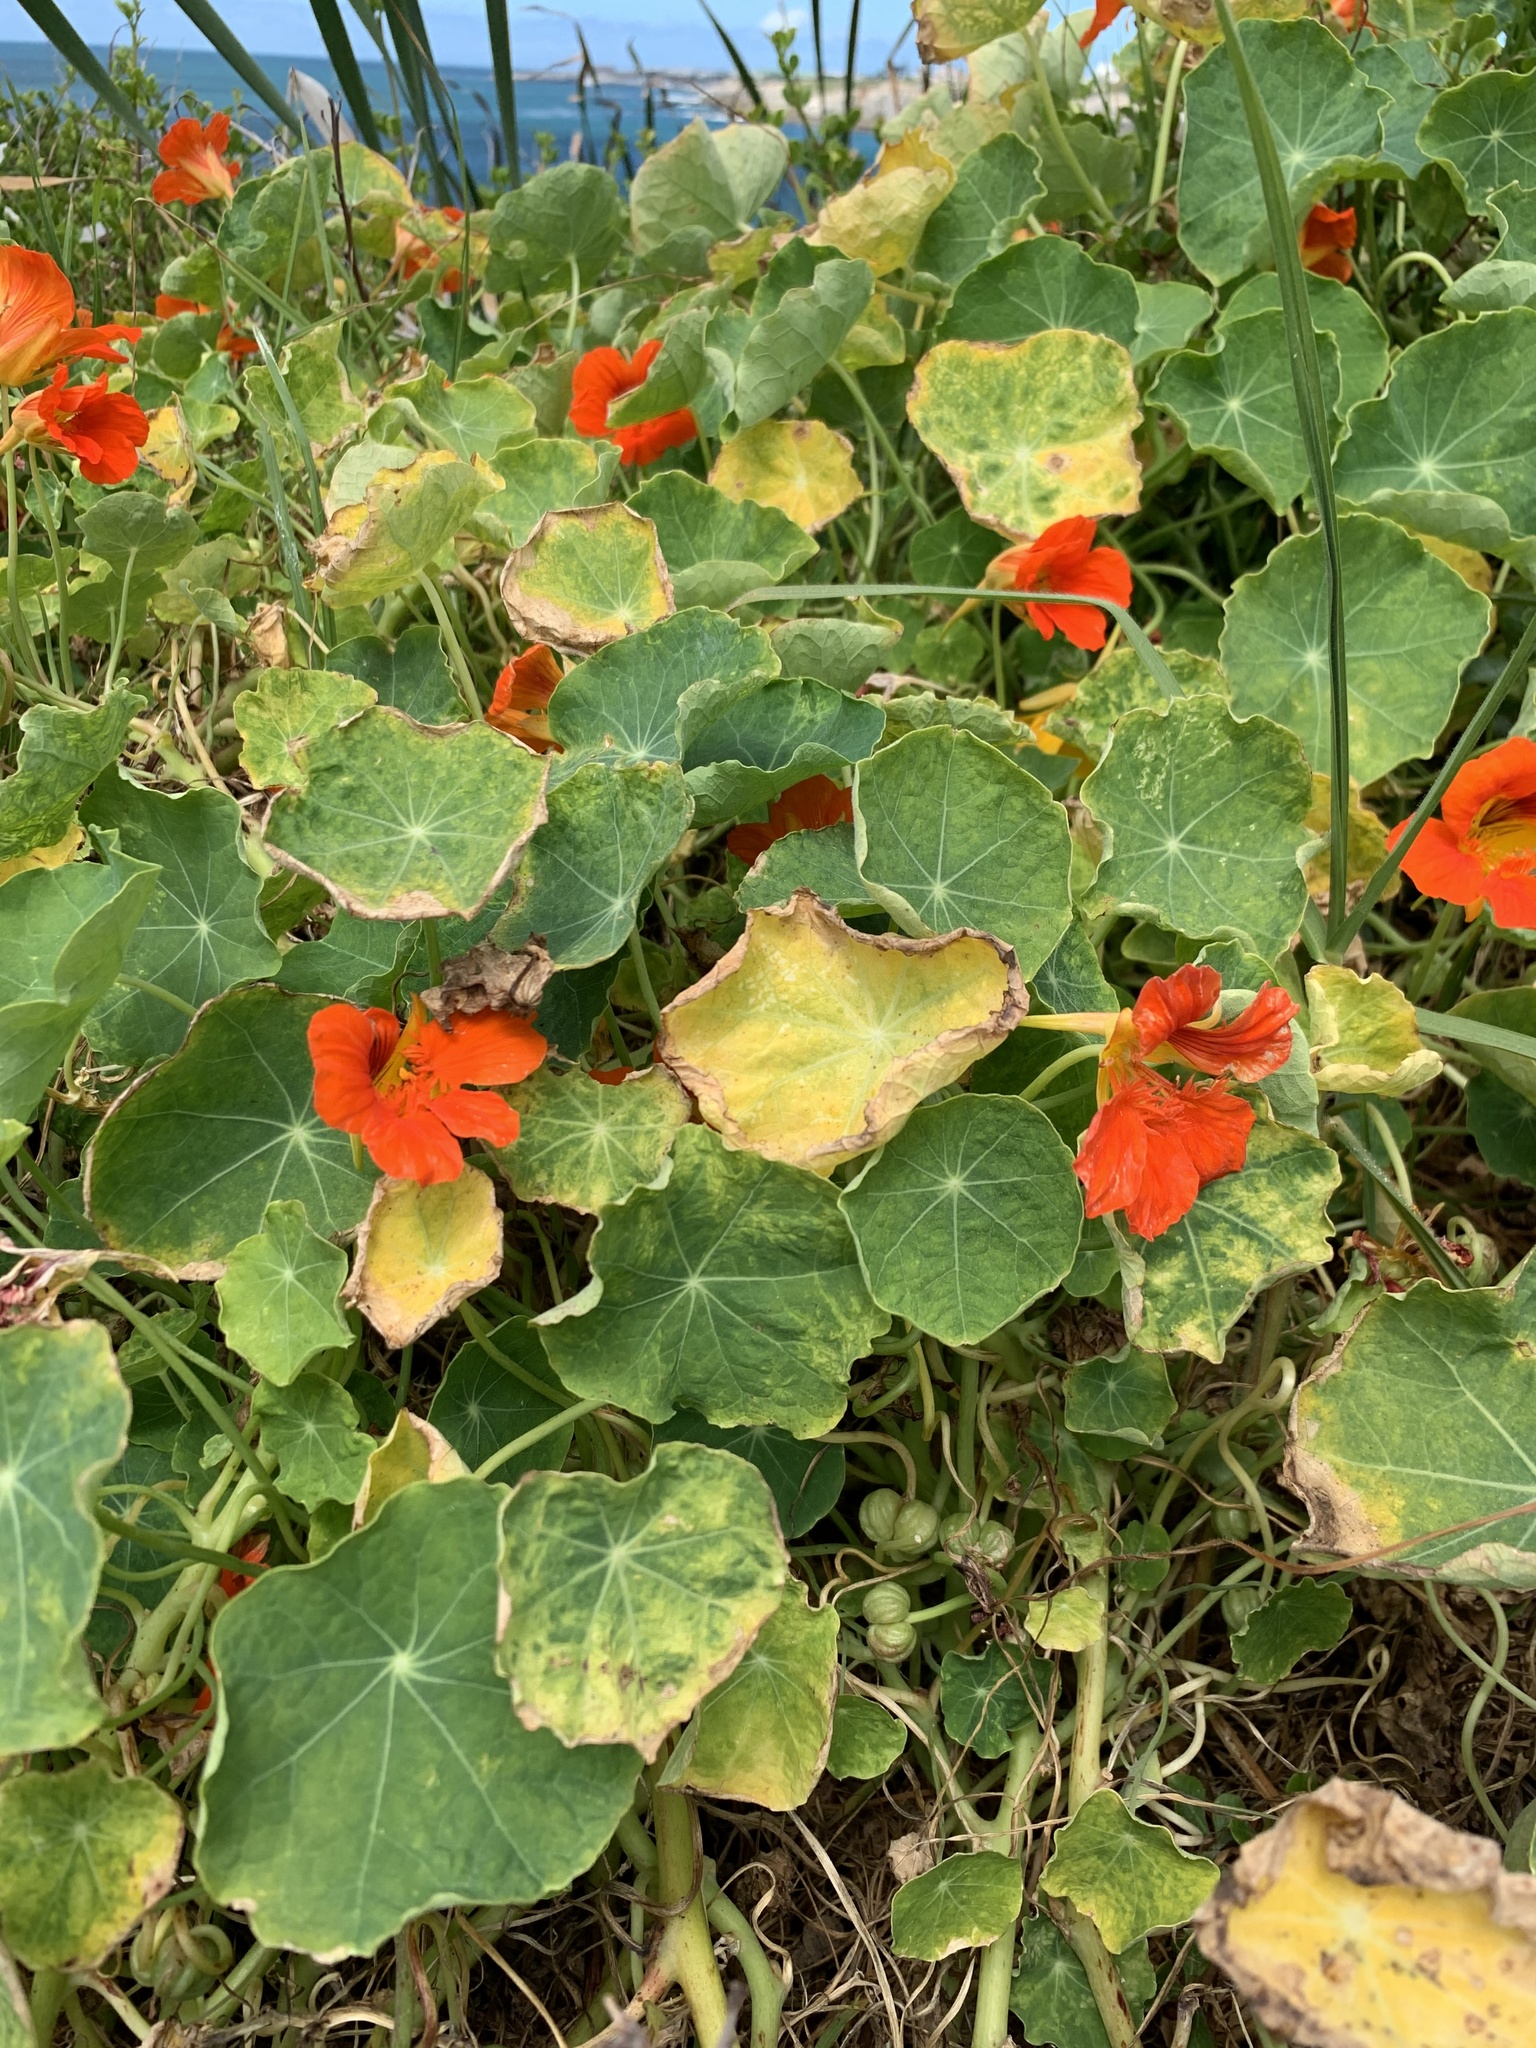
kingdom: Plantae
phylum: Tracheophyta
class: Magnoliopsida
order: Brassicales
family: Tropaeolaceae
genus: Tropaeolum
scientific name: Tropaeolum majus
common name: Nasturtium
